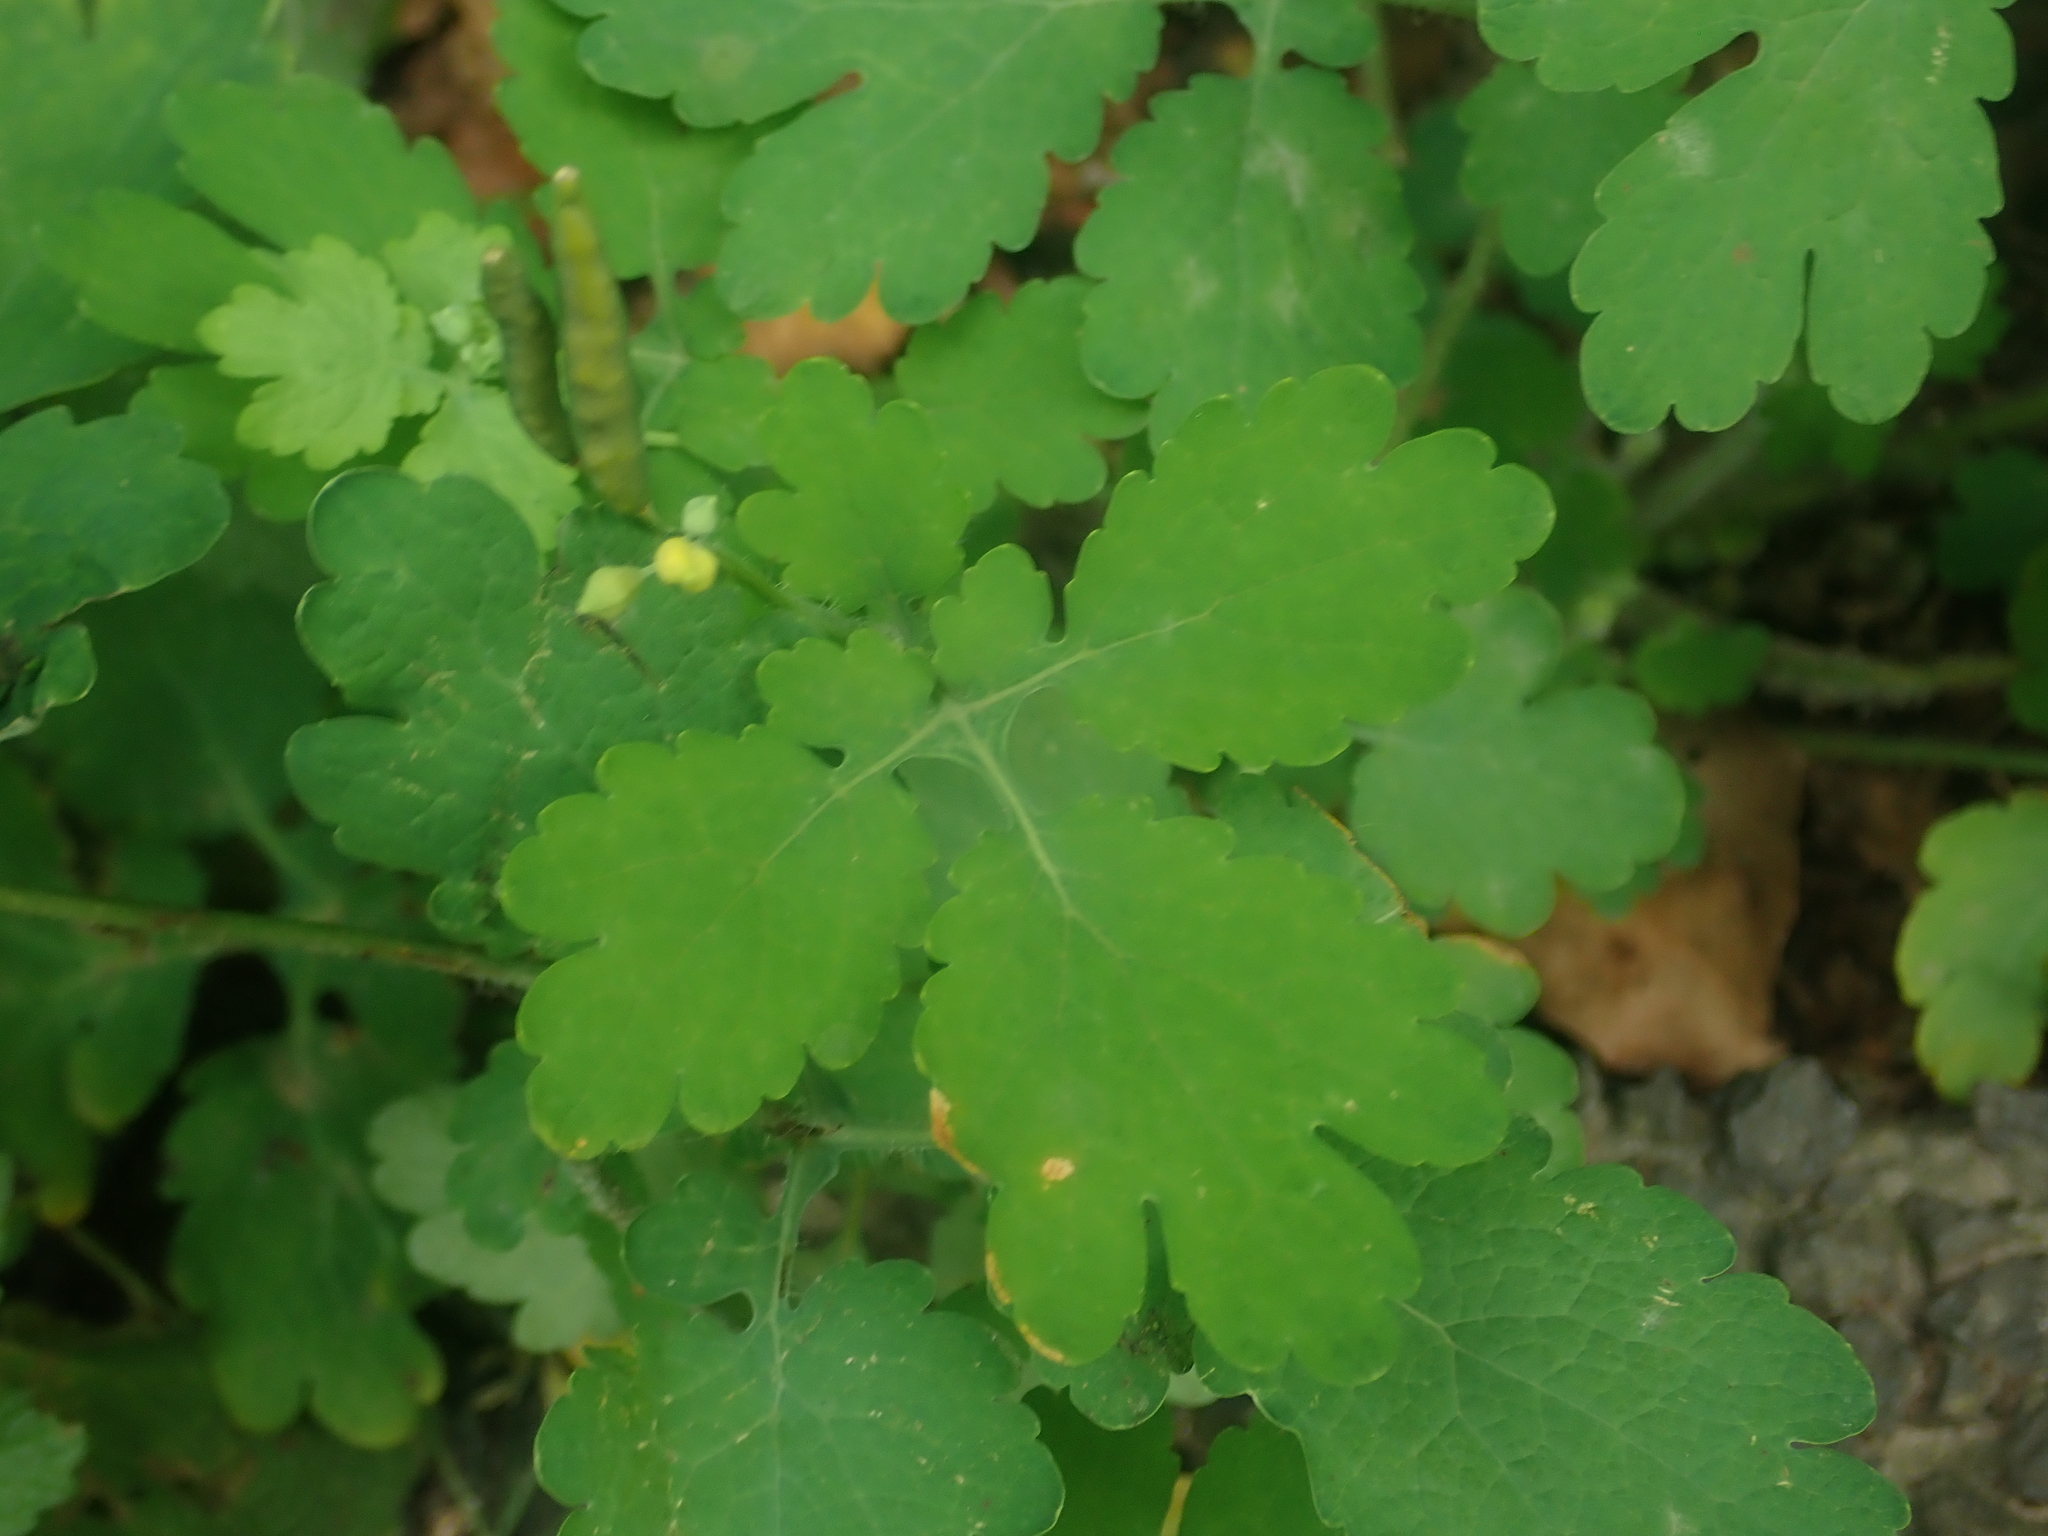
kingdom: Plantae
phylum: Tracheophyta
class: Magnoliopsida
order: Ranunculales
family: Papaveraceae
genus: Chelidonium
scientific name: Chelidonium majus
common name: Greater celandine
